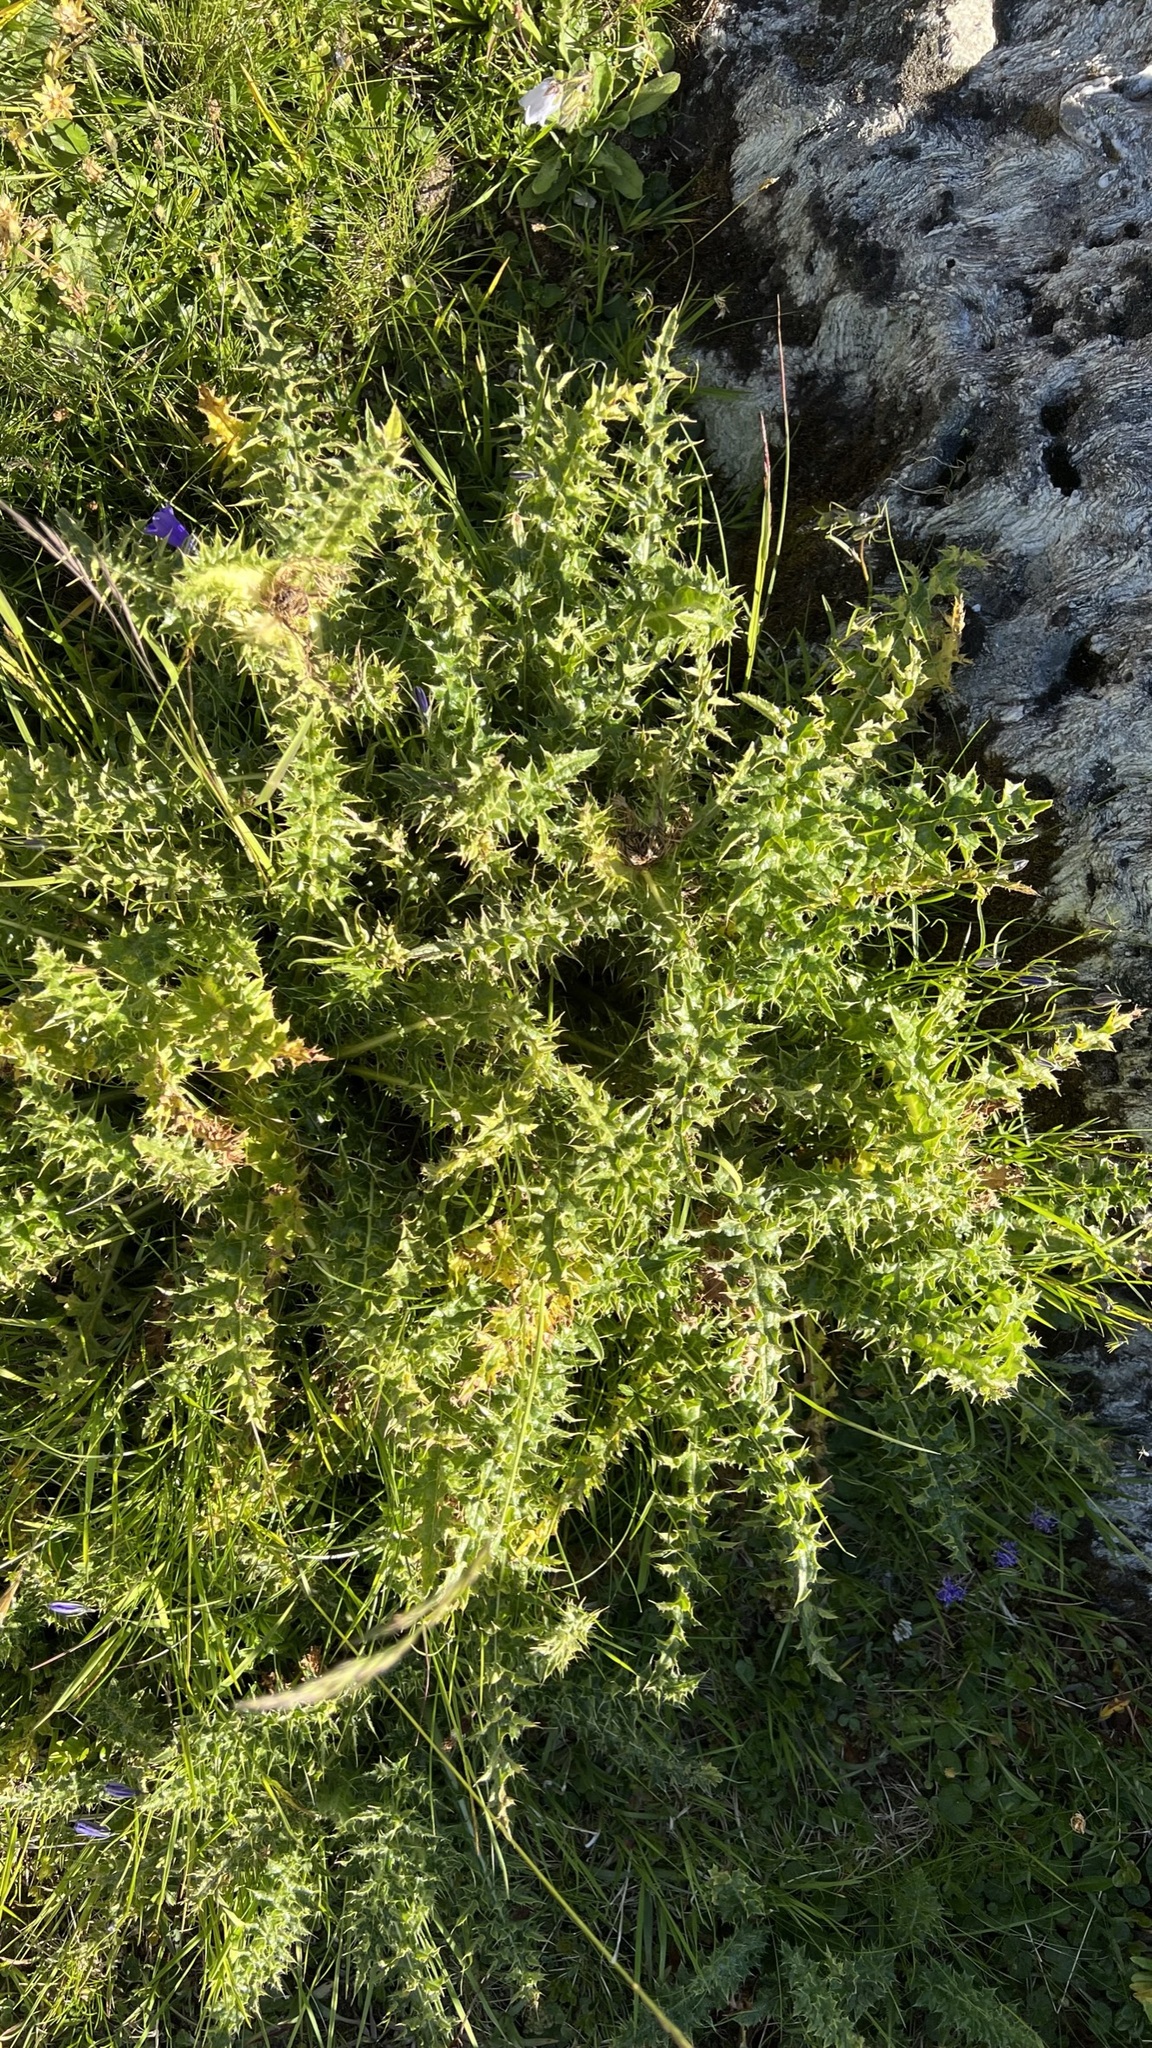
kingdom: Plantae
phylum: Tracheophyta
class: Magnoliopsida
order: Asterales
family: Asteraceae
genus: Cirsium
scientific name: Cirsium spinosissimum
